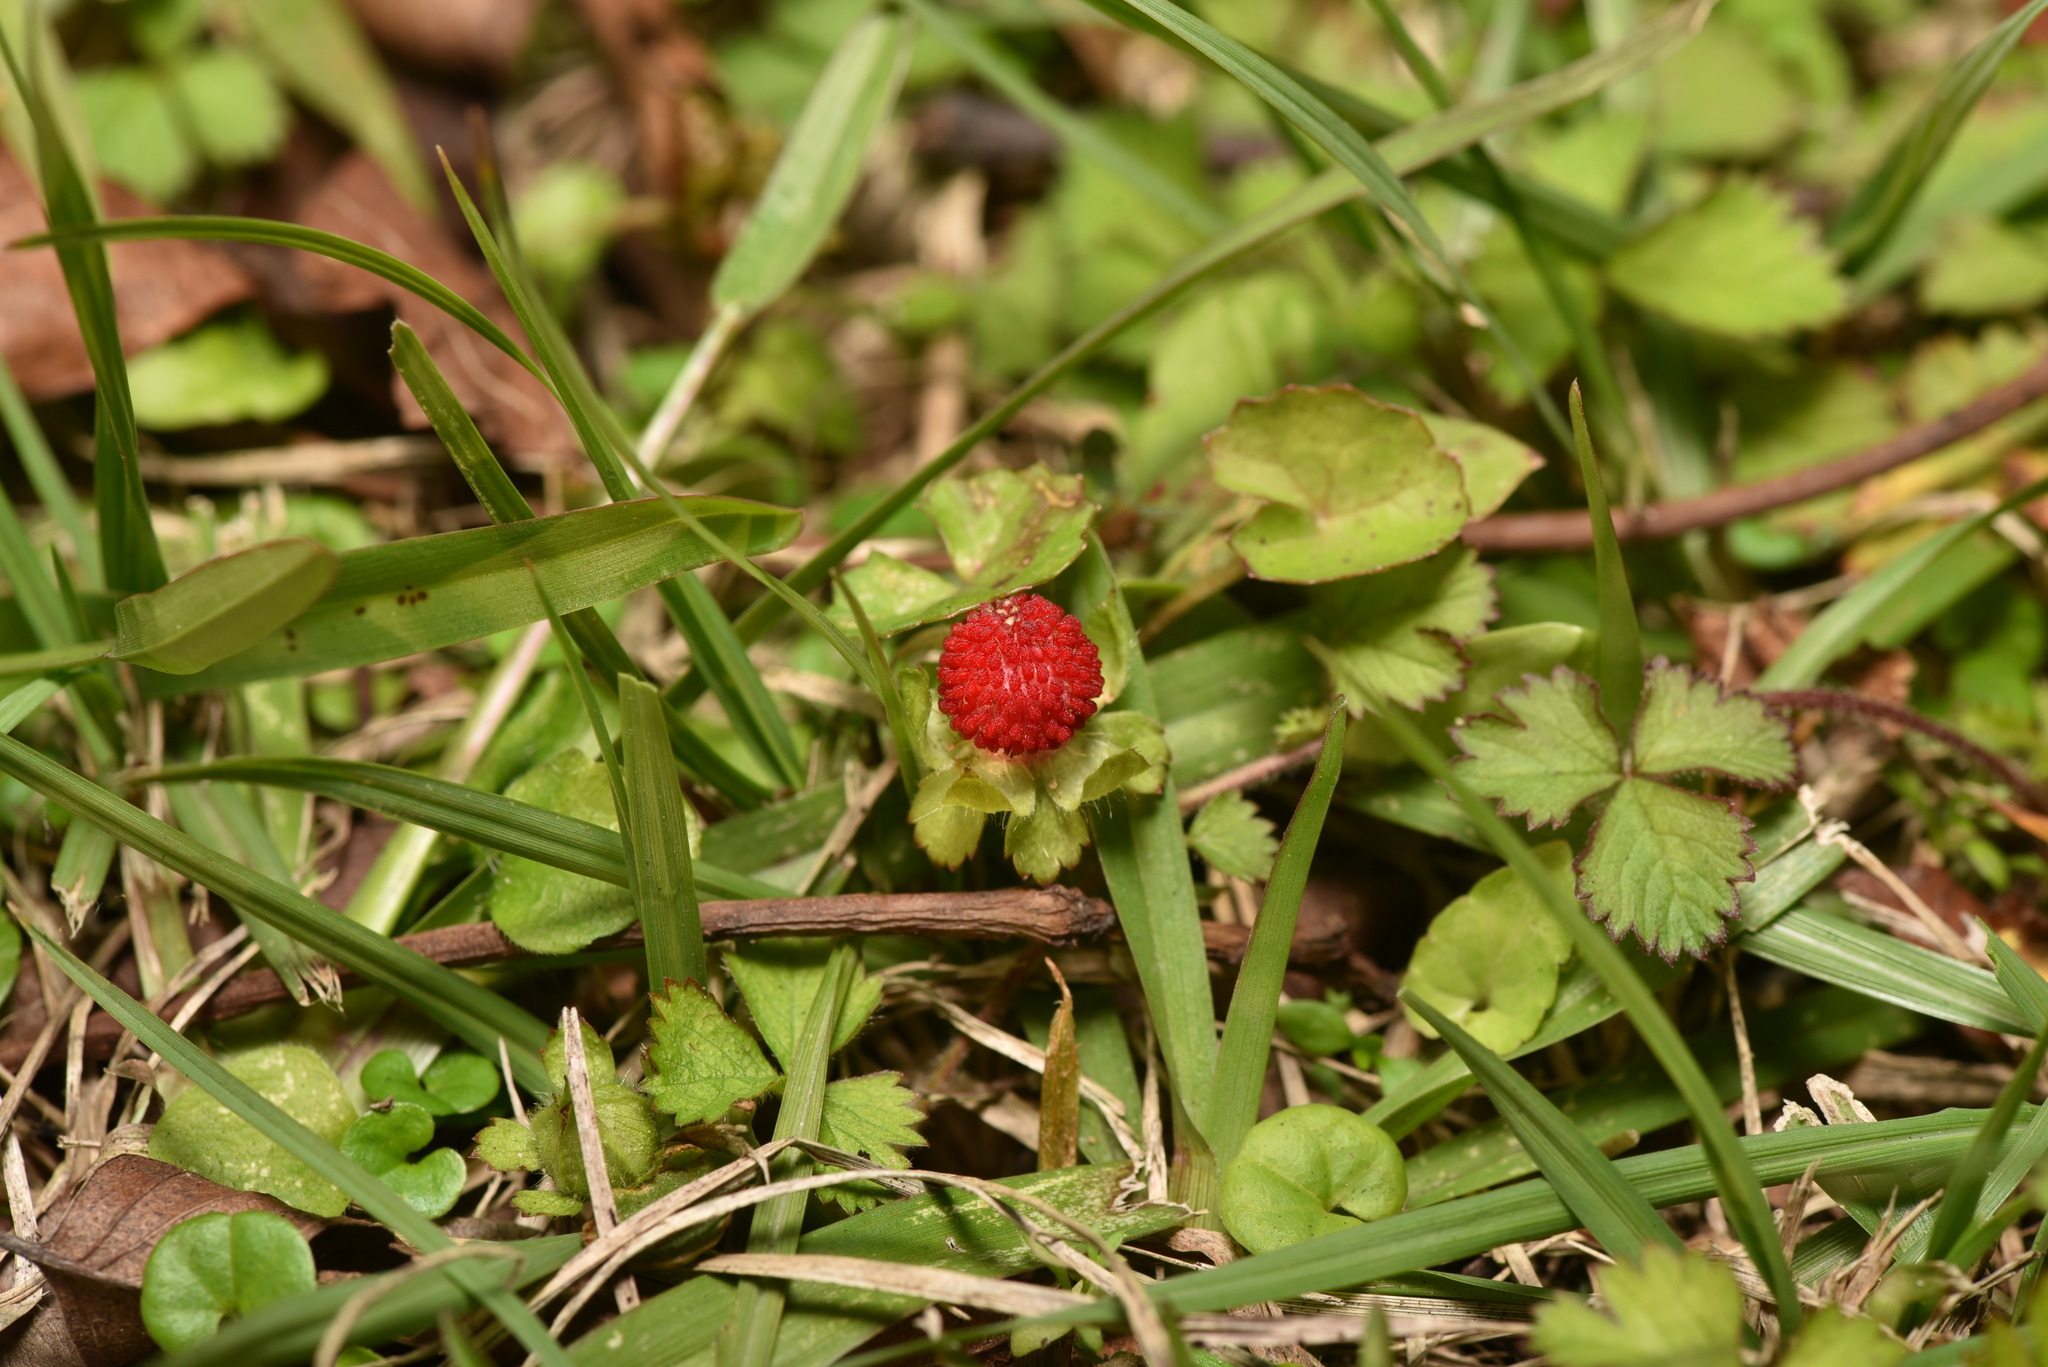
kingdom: Plantae
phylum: Tracheophyta
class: Magnoliopsida
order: Rosales
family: Rosaceae
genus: Potentilla
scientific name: Potentilla wallichiana
